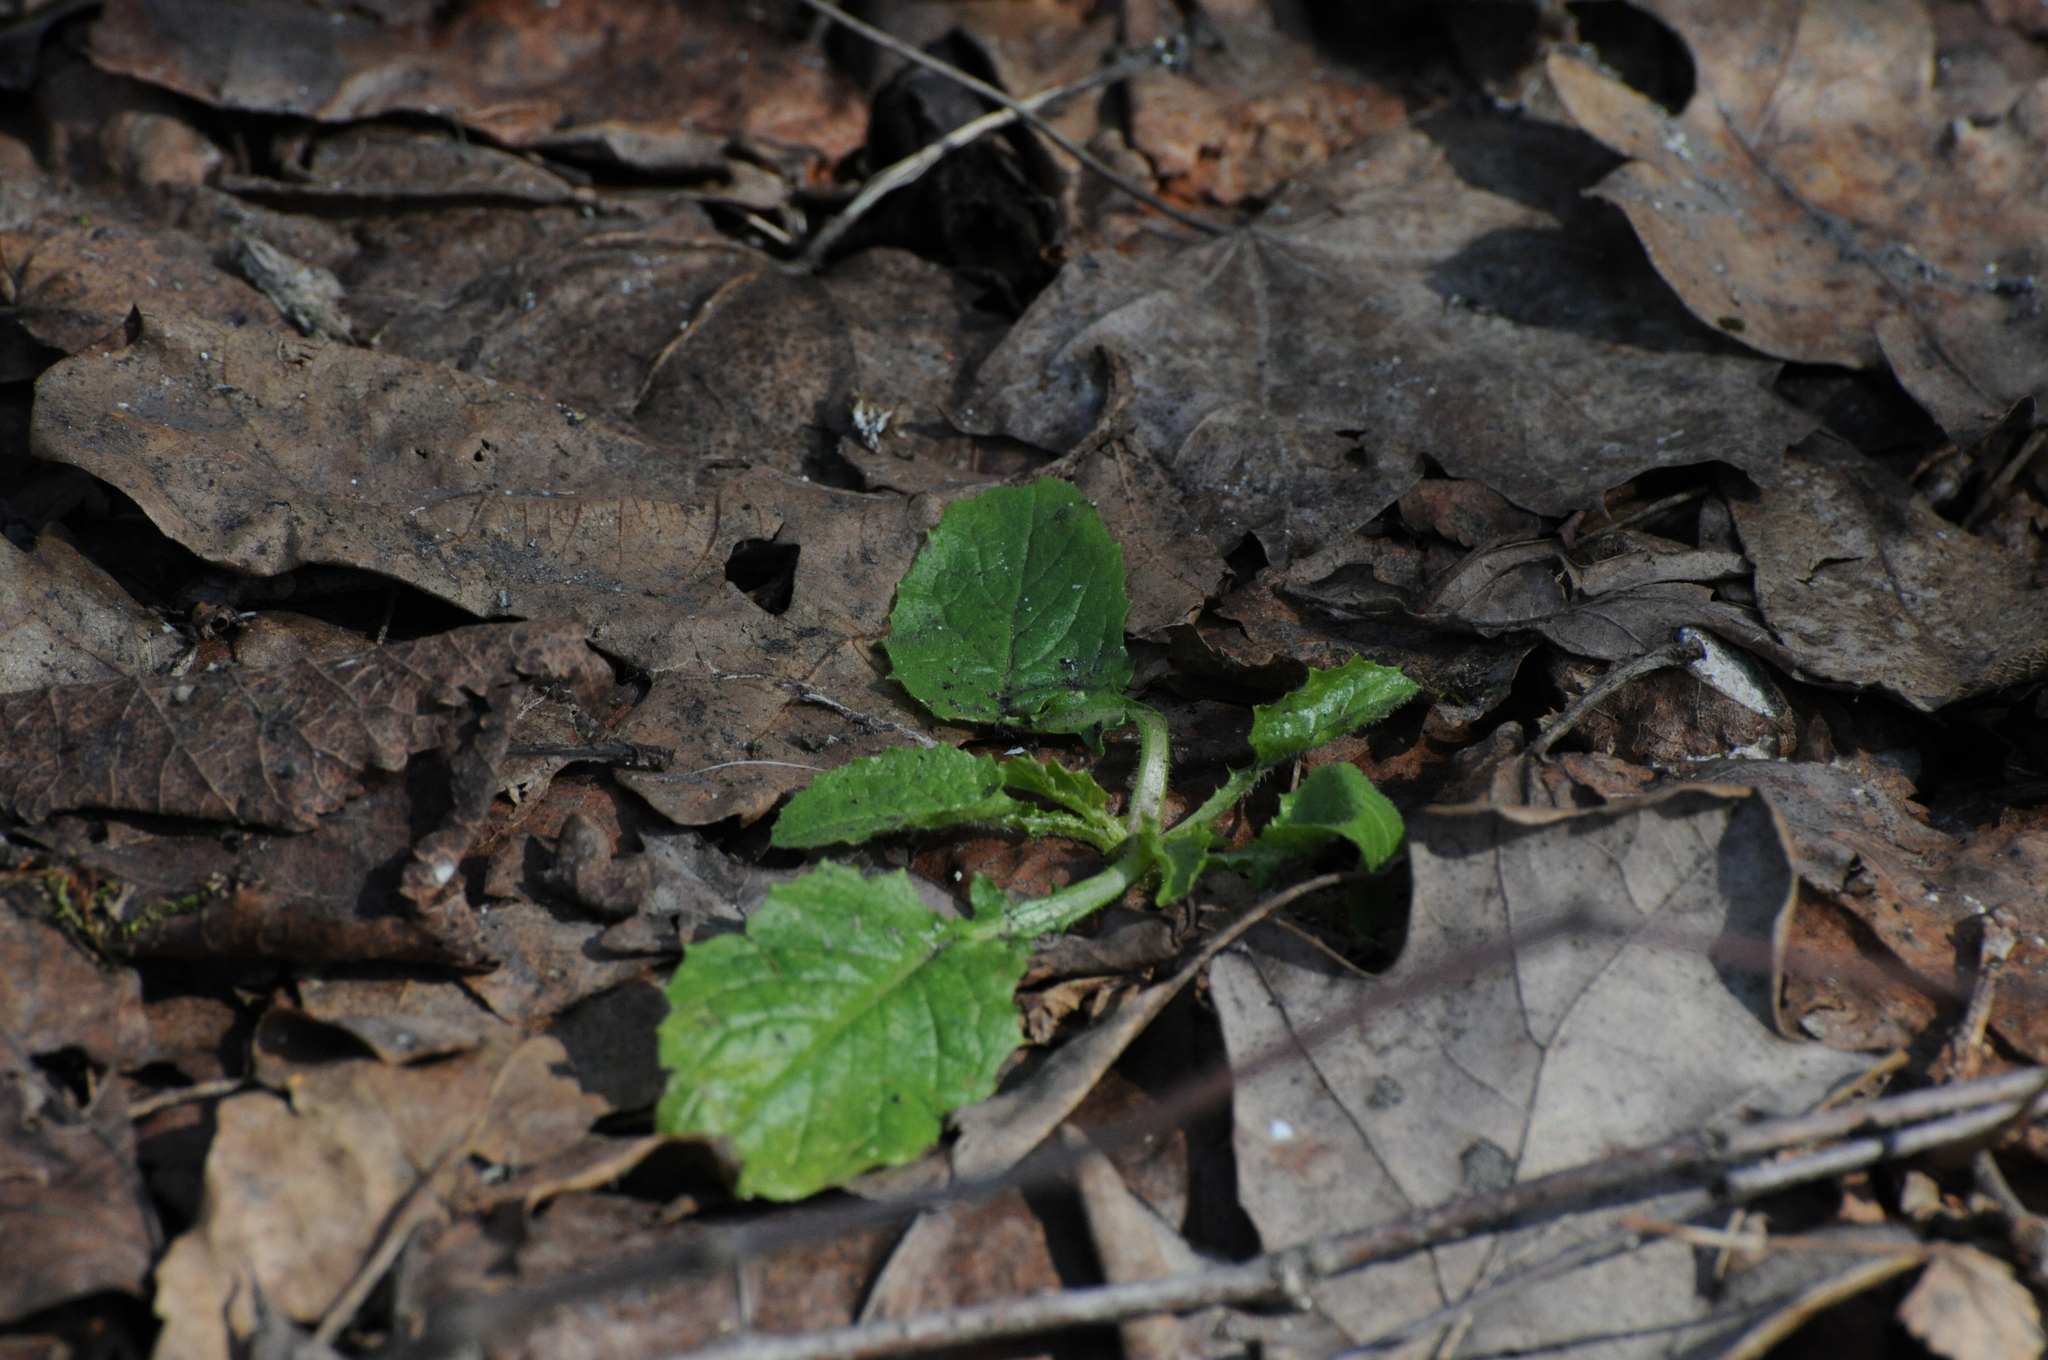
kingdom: Plantae
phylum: Tracheophyta
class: Magnoliopsida
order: Asterales
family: Asteraceae
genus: Lapsana
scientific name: Lapsana communis
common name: Nipplewort
